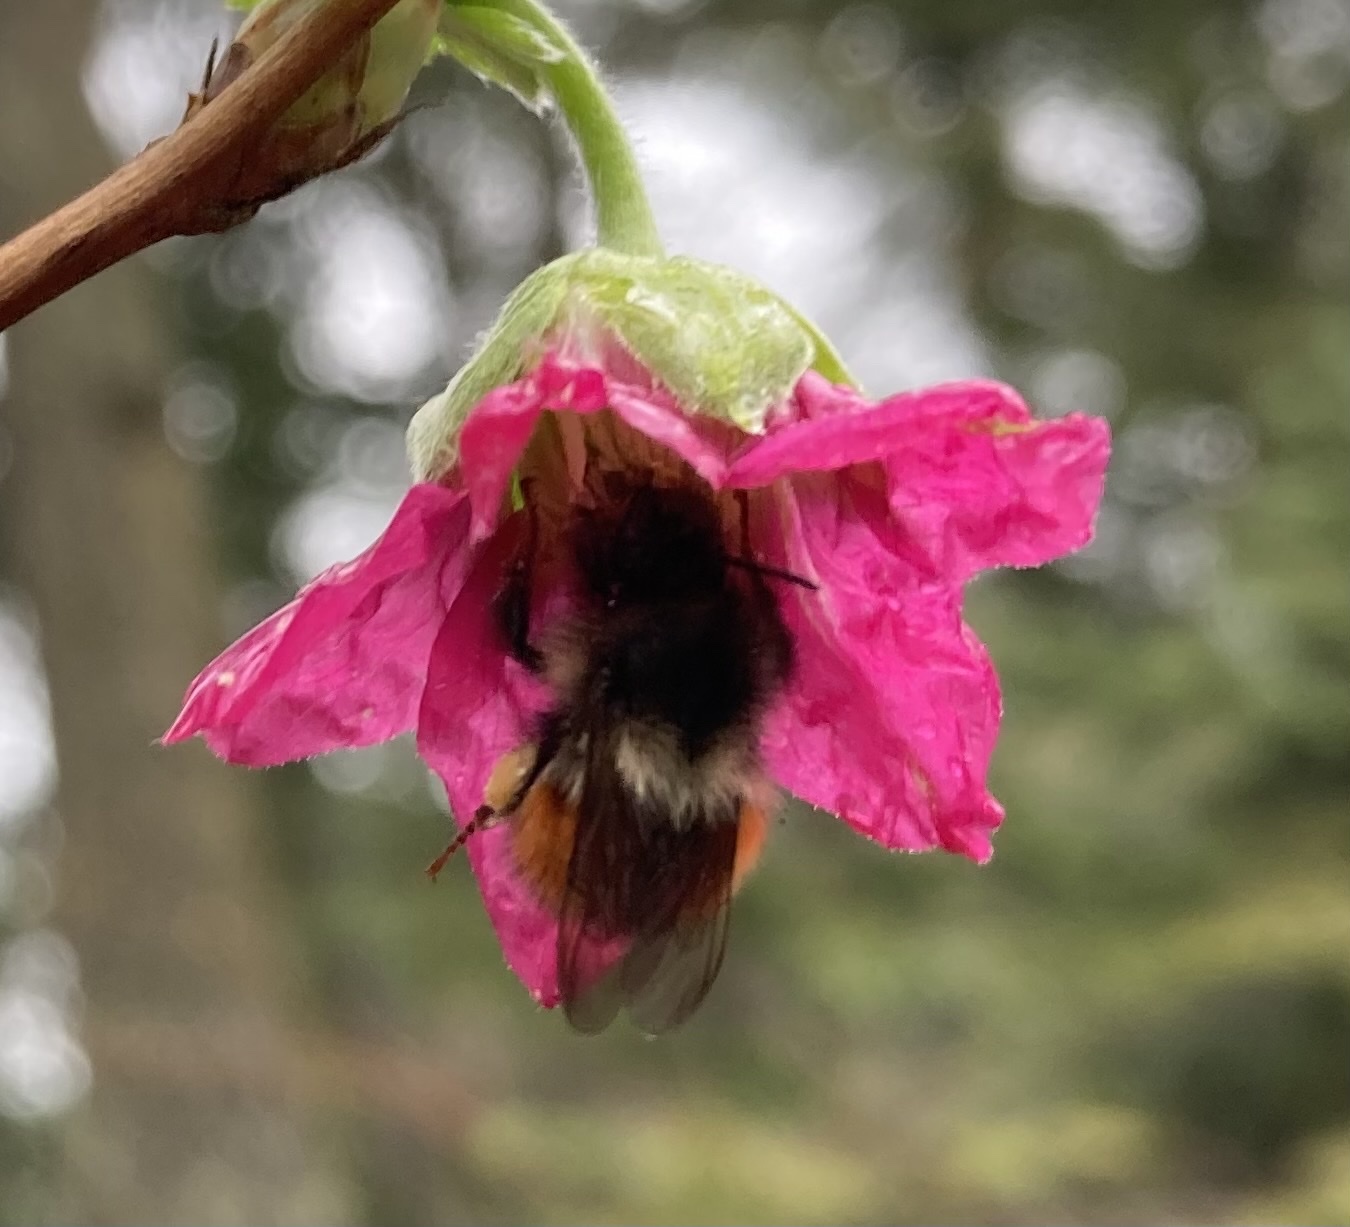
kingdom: Animalia
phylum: Arthropoda
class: Insecta
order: Hymenoptera
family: Apidae
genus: Bombus
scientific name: Bombus melanopygus
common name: Black tail bumble bee
